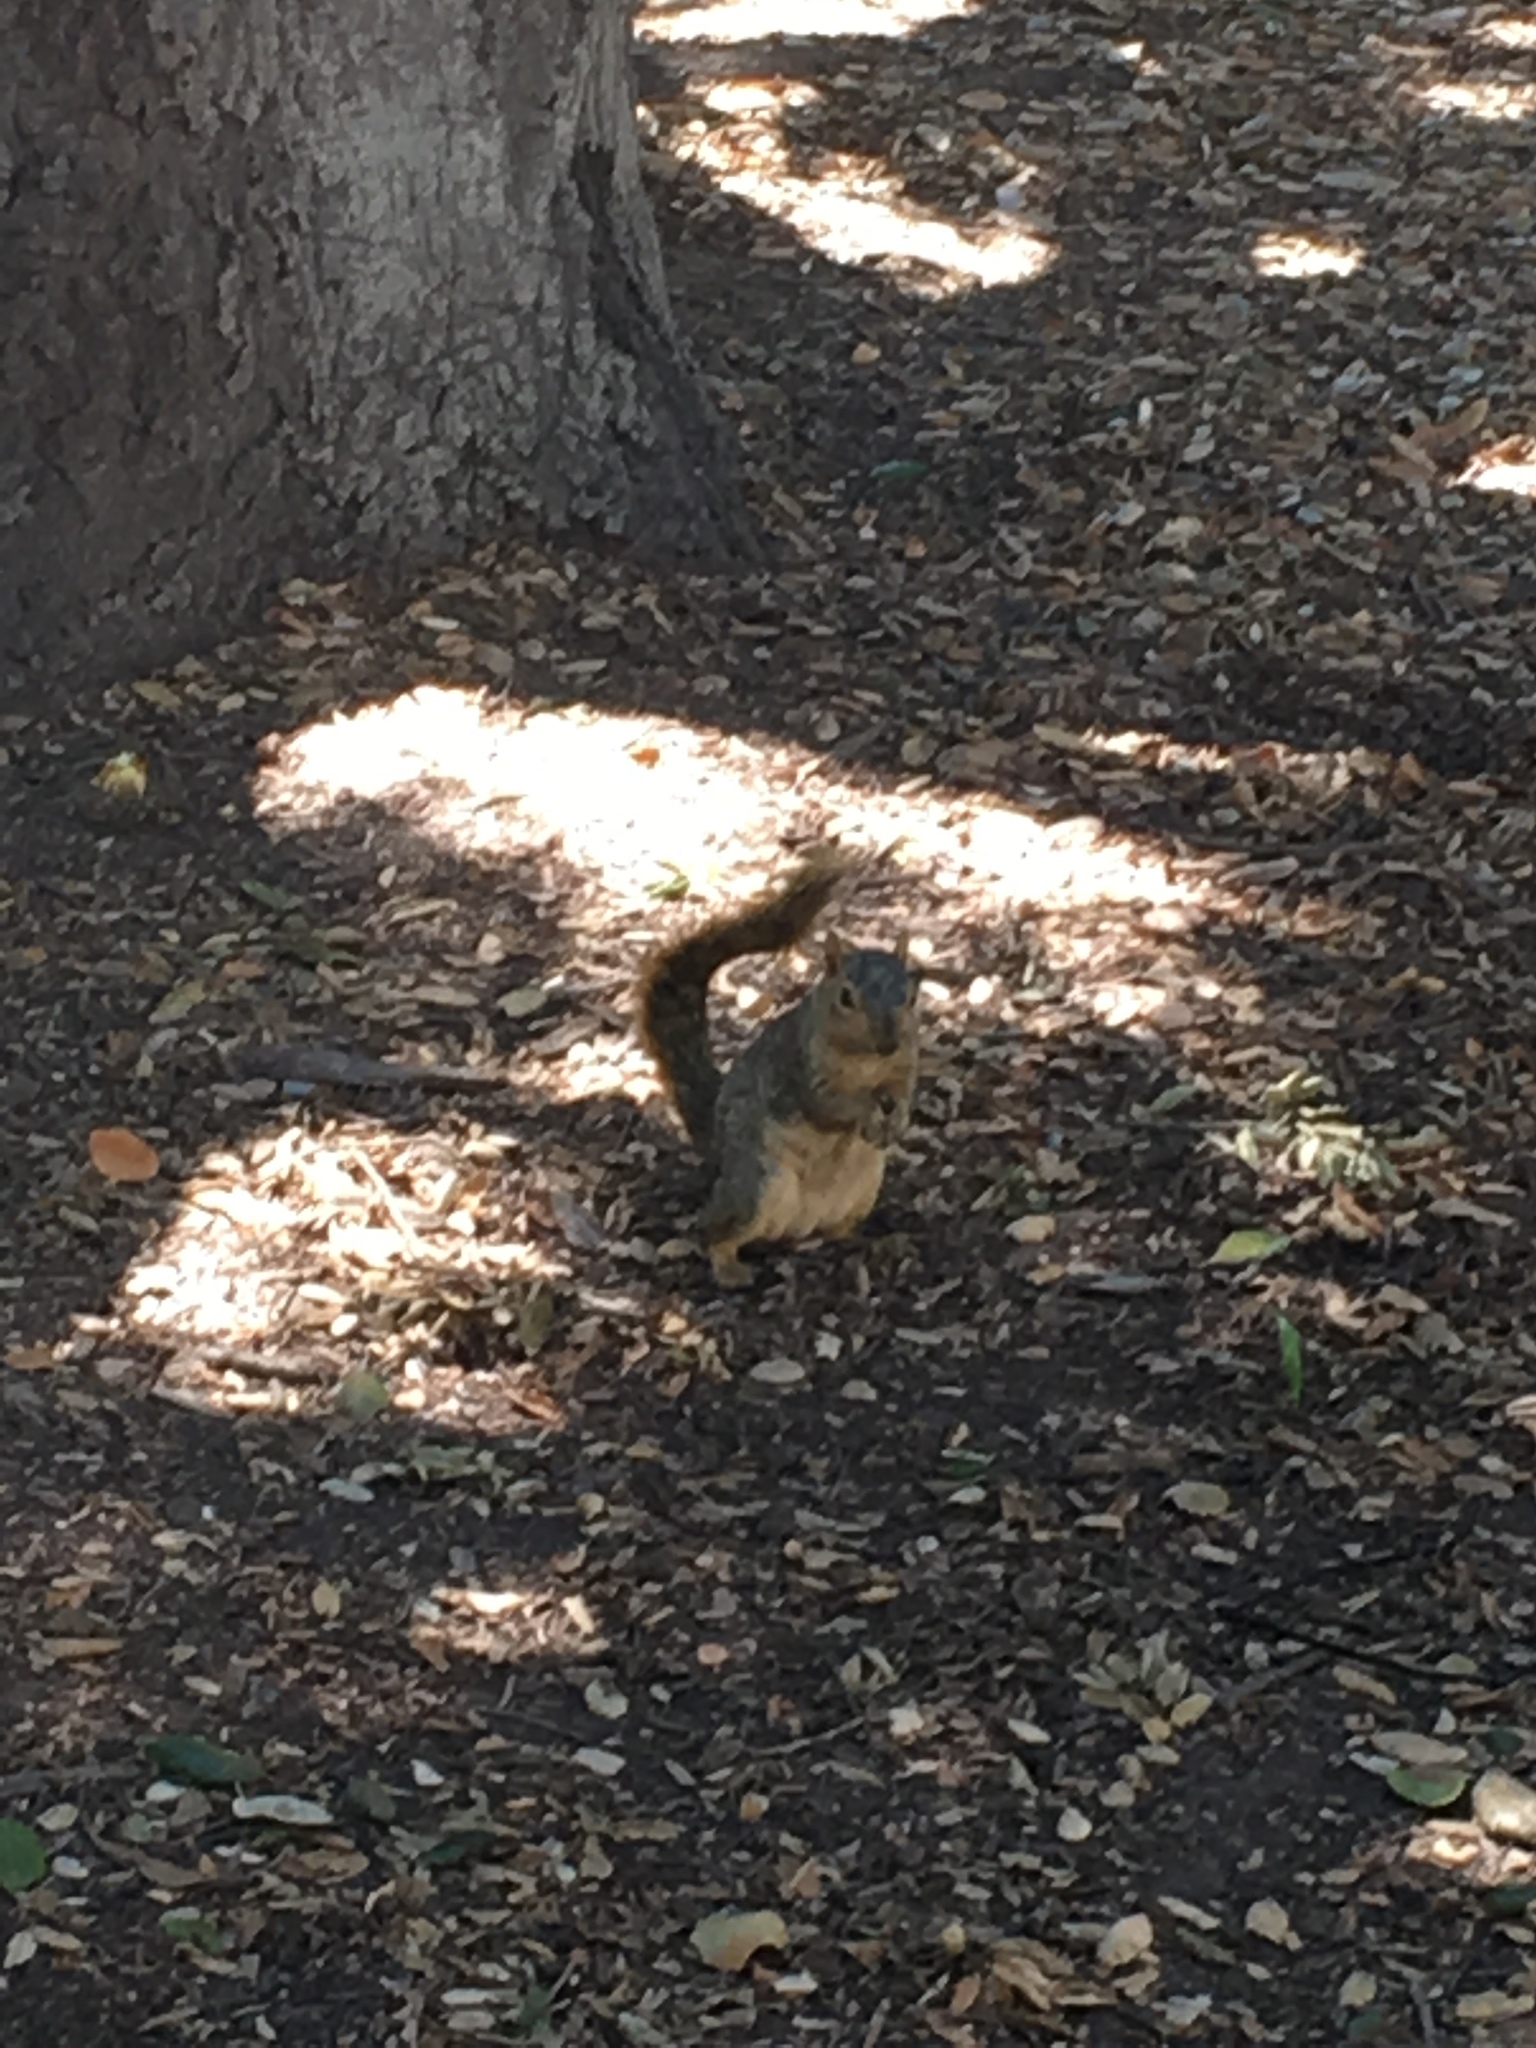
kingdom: Animalia
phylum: Chordata
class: Mammalia
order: Rodentia
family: Sciuridae
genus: Sciurus
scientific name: Sciurus niger
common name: Fox squirrel
